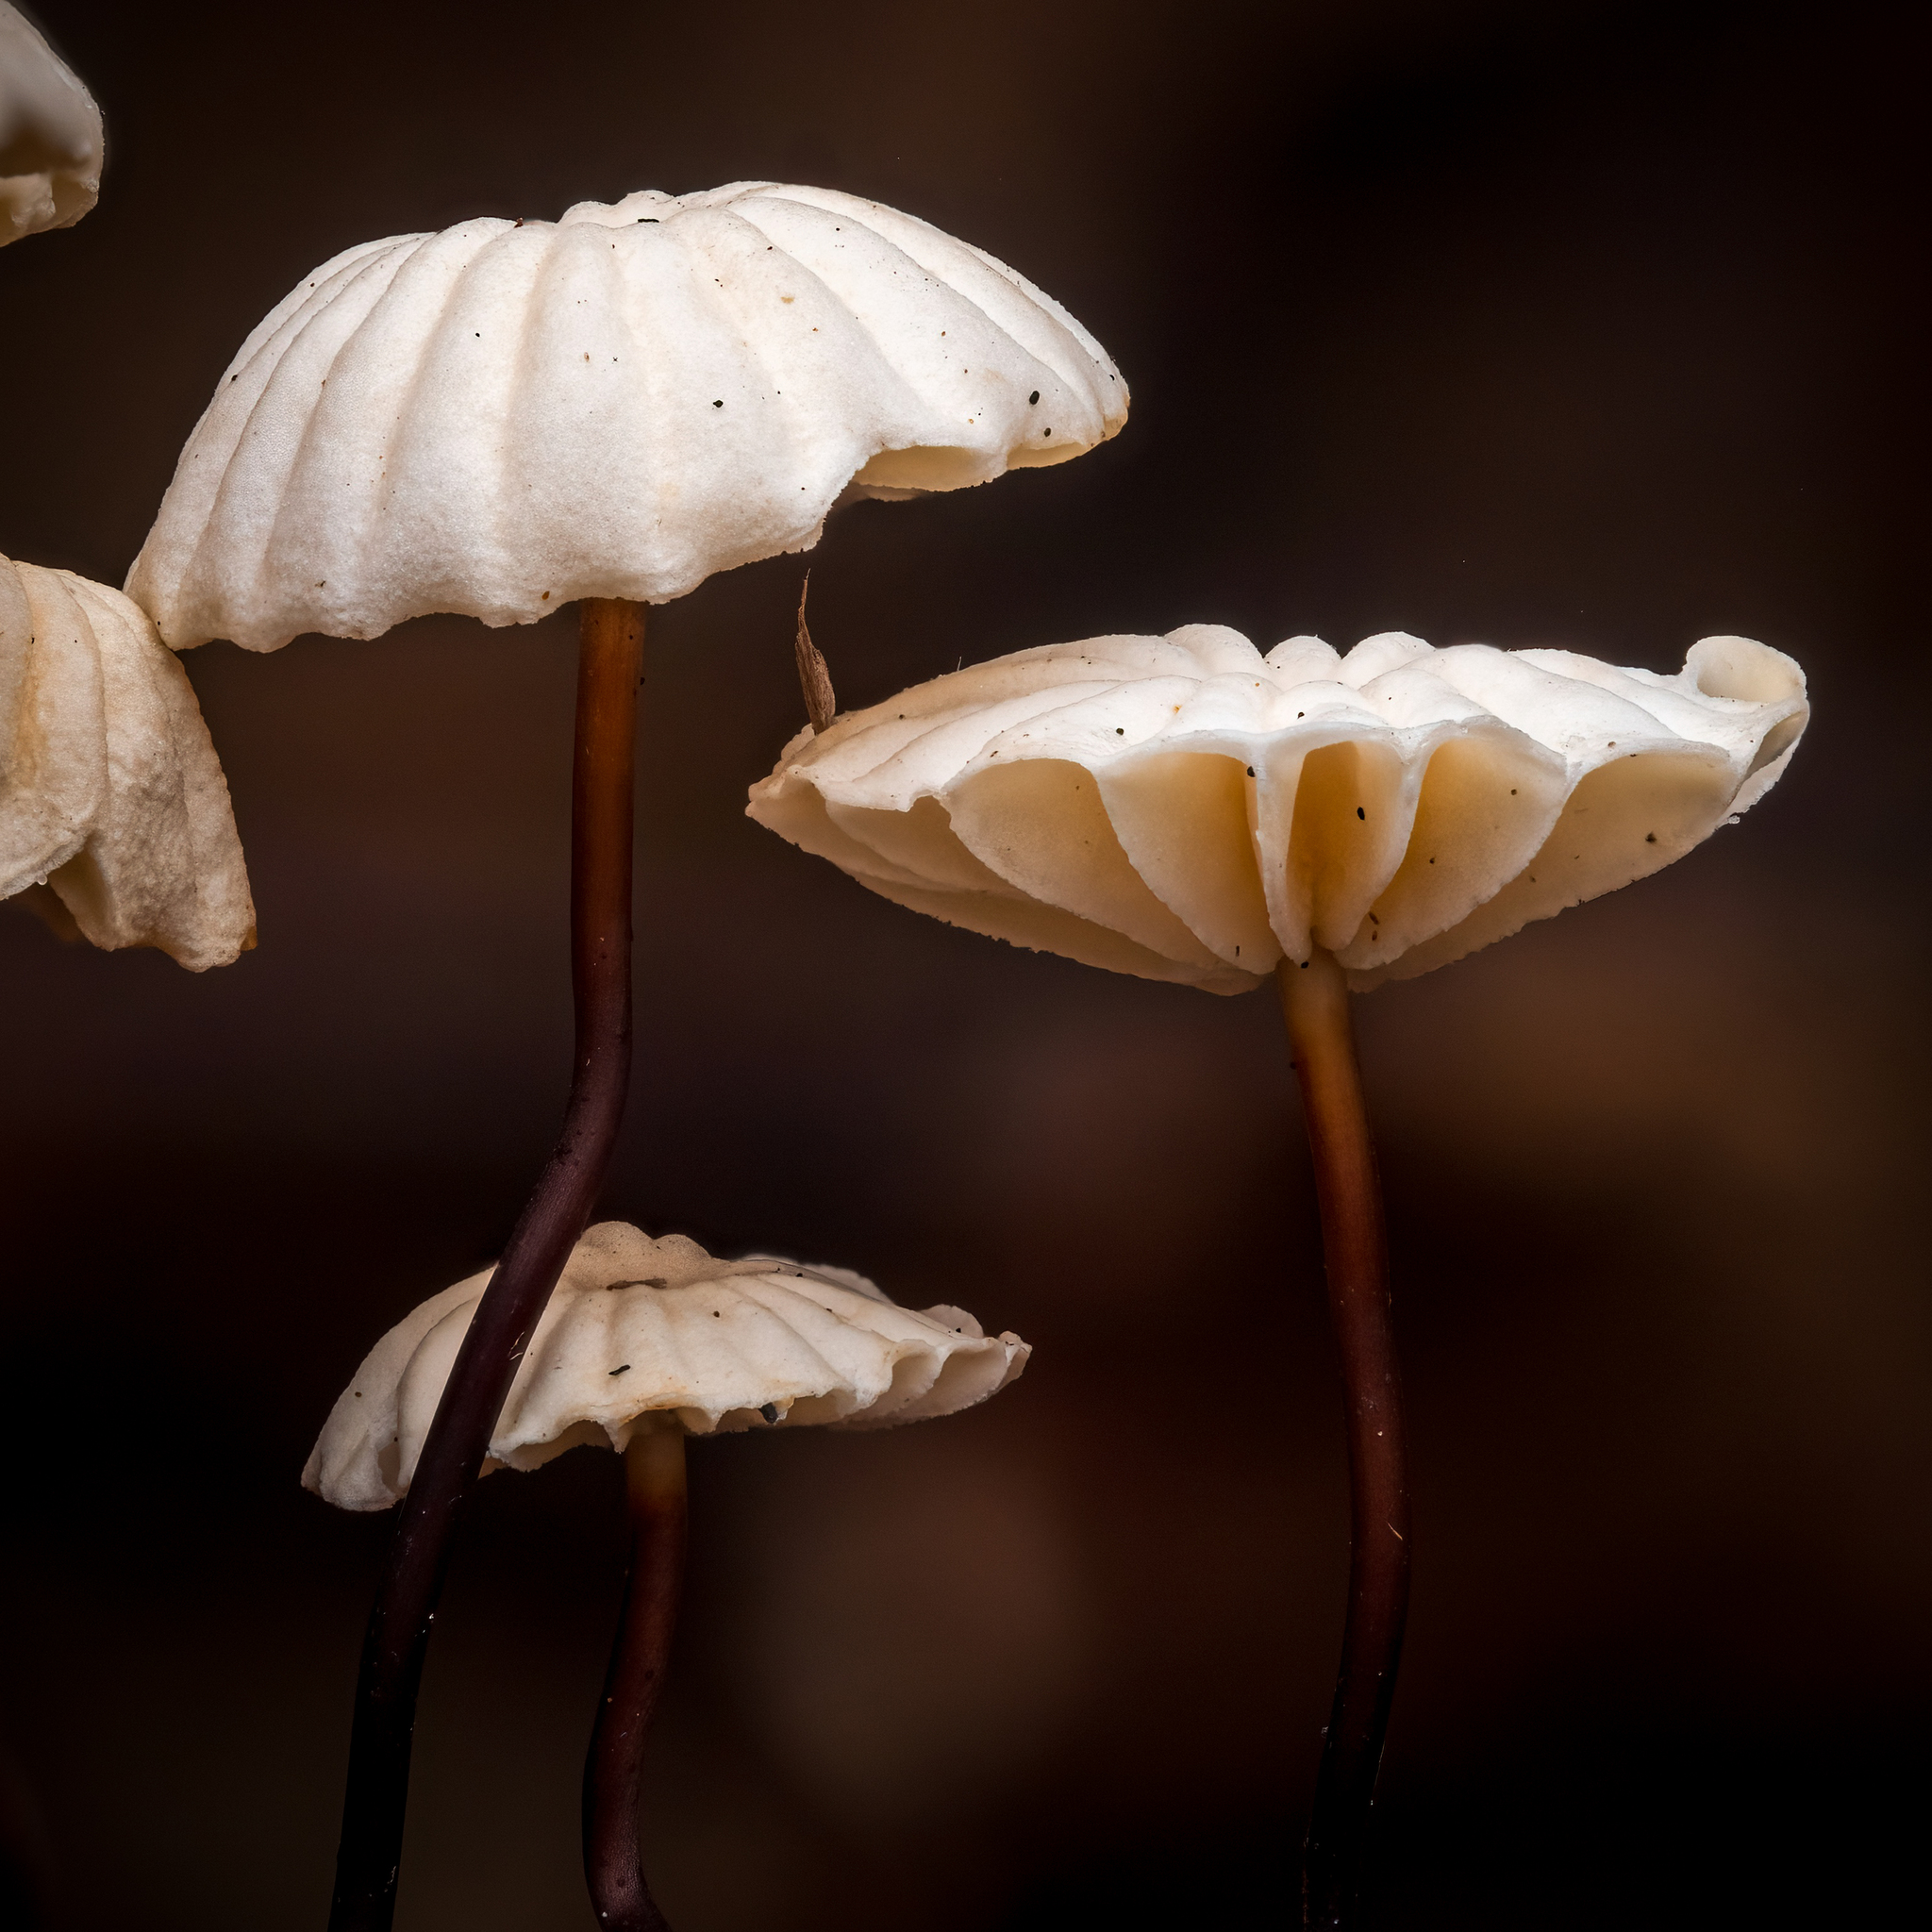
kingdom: Fungi
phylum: Basidiomycota
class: Agaricomycetes
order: Agaricales
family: Marasmiaceae
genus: Marasmius
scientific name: Marasmius rotula
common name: Collared parachute
